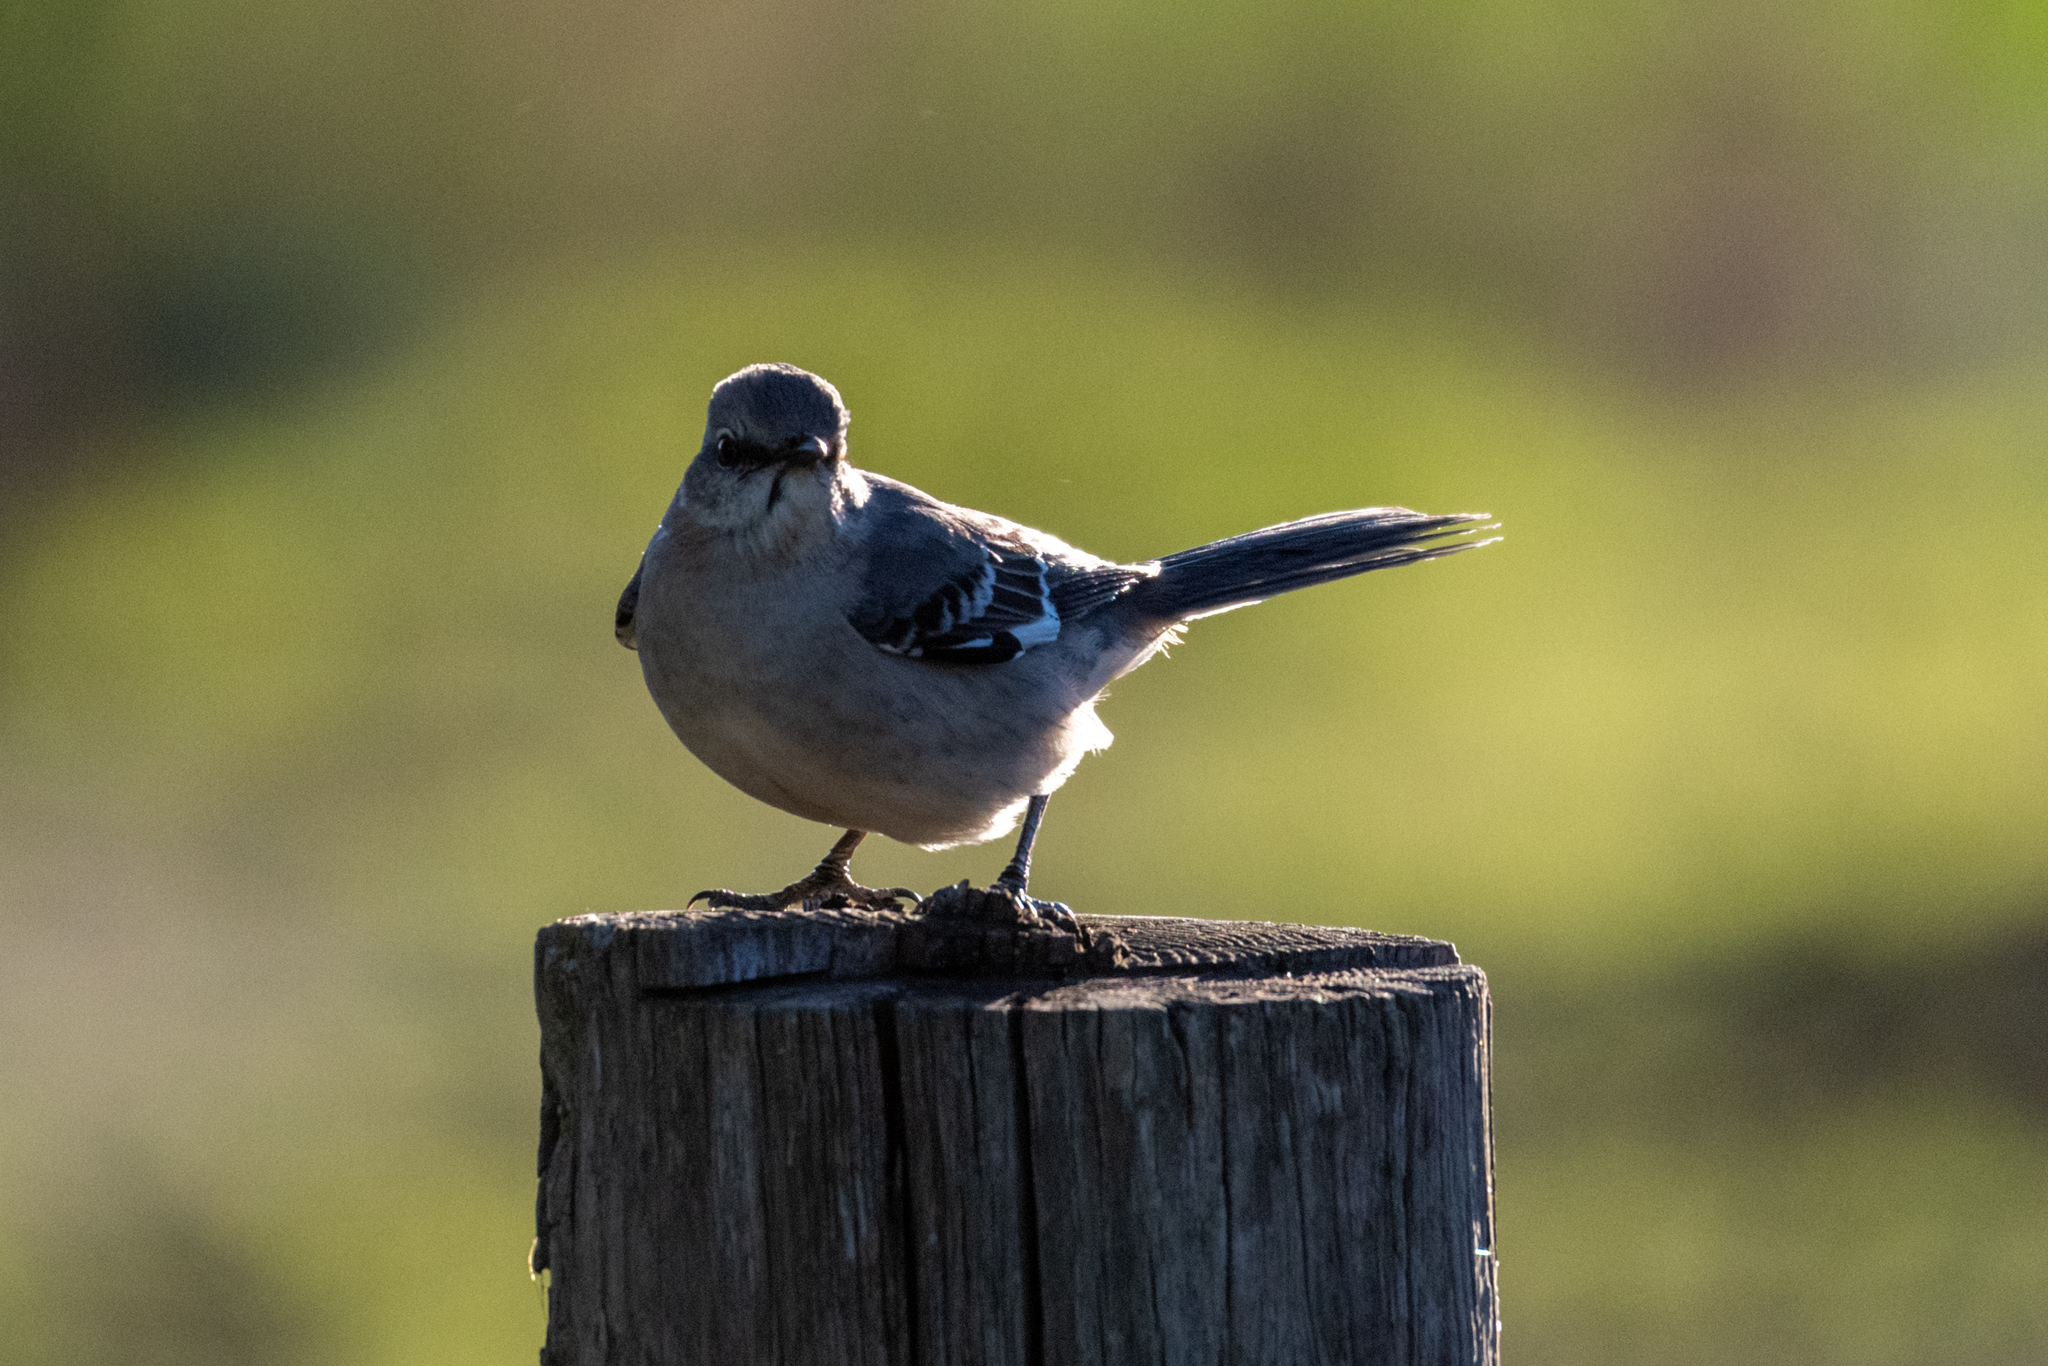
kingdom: Animalia
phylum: Chordata
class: Aves
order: Passeriformes
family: Mimidae
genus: Mimus
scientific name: Mimus polyglottos
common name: Northern mockingbird
